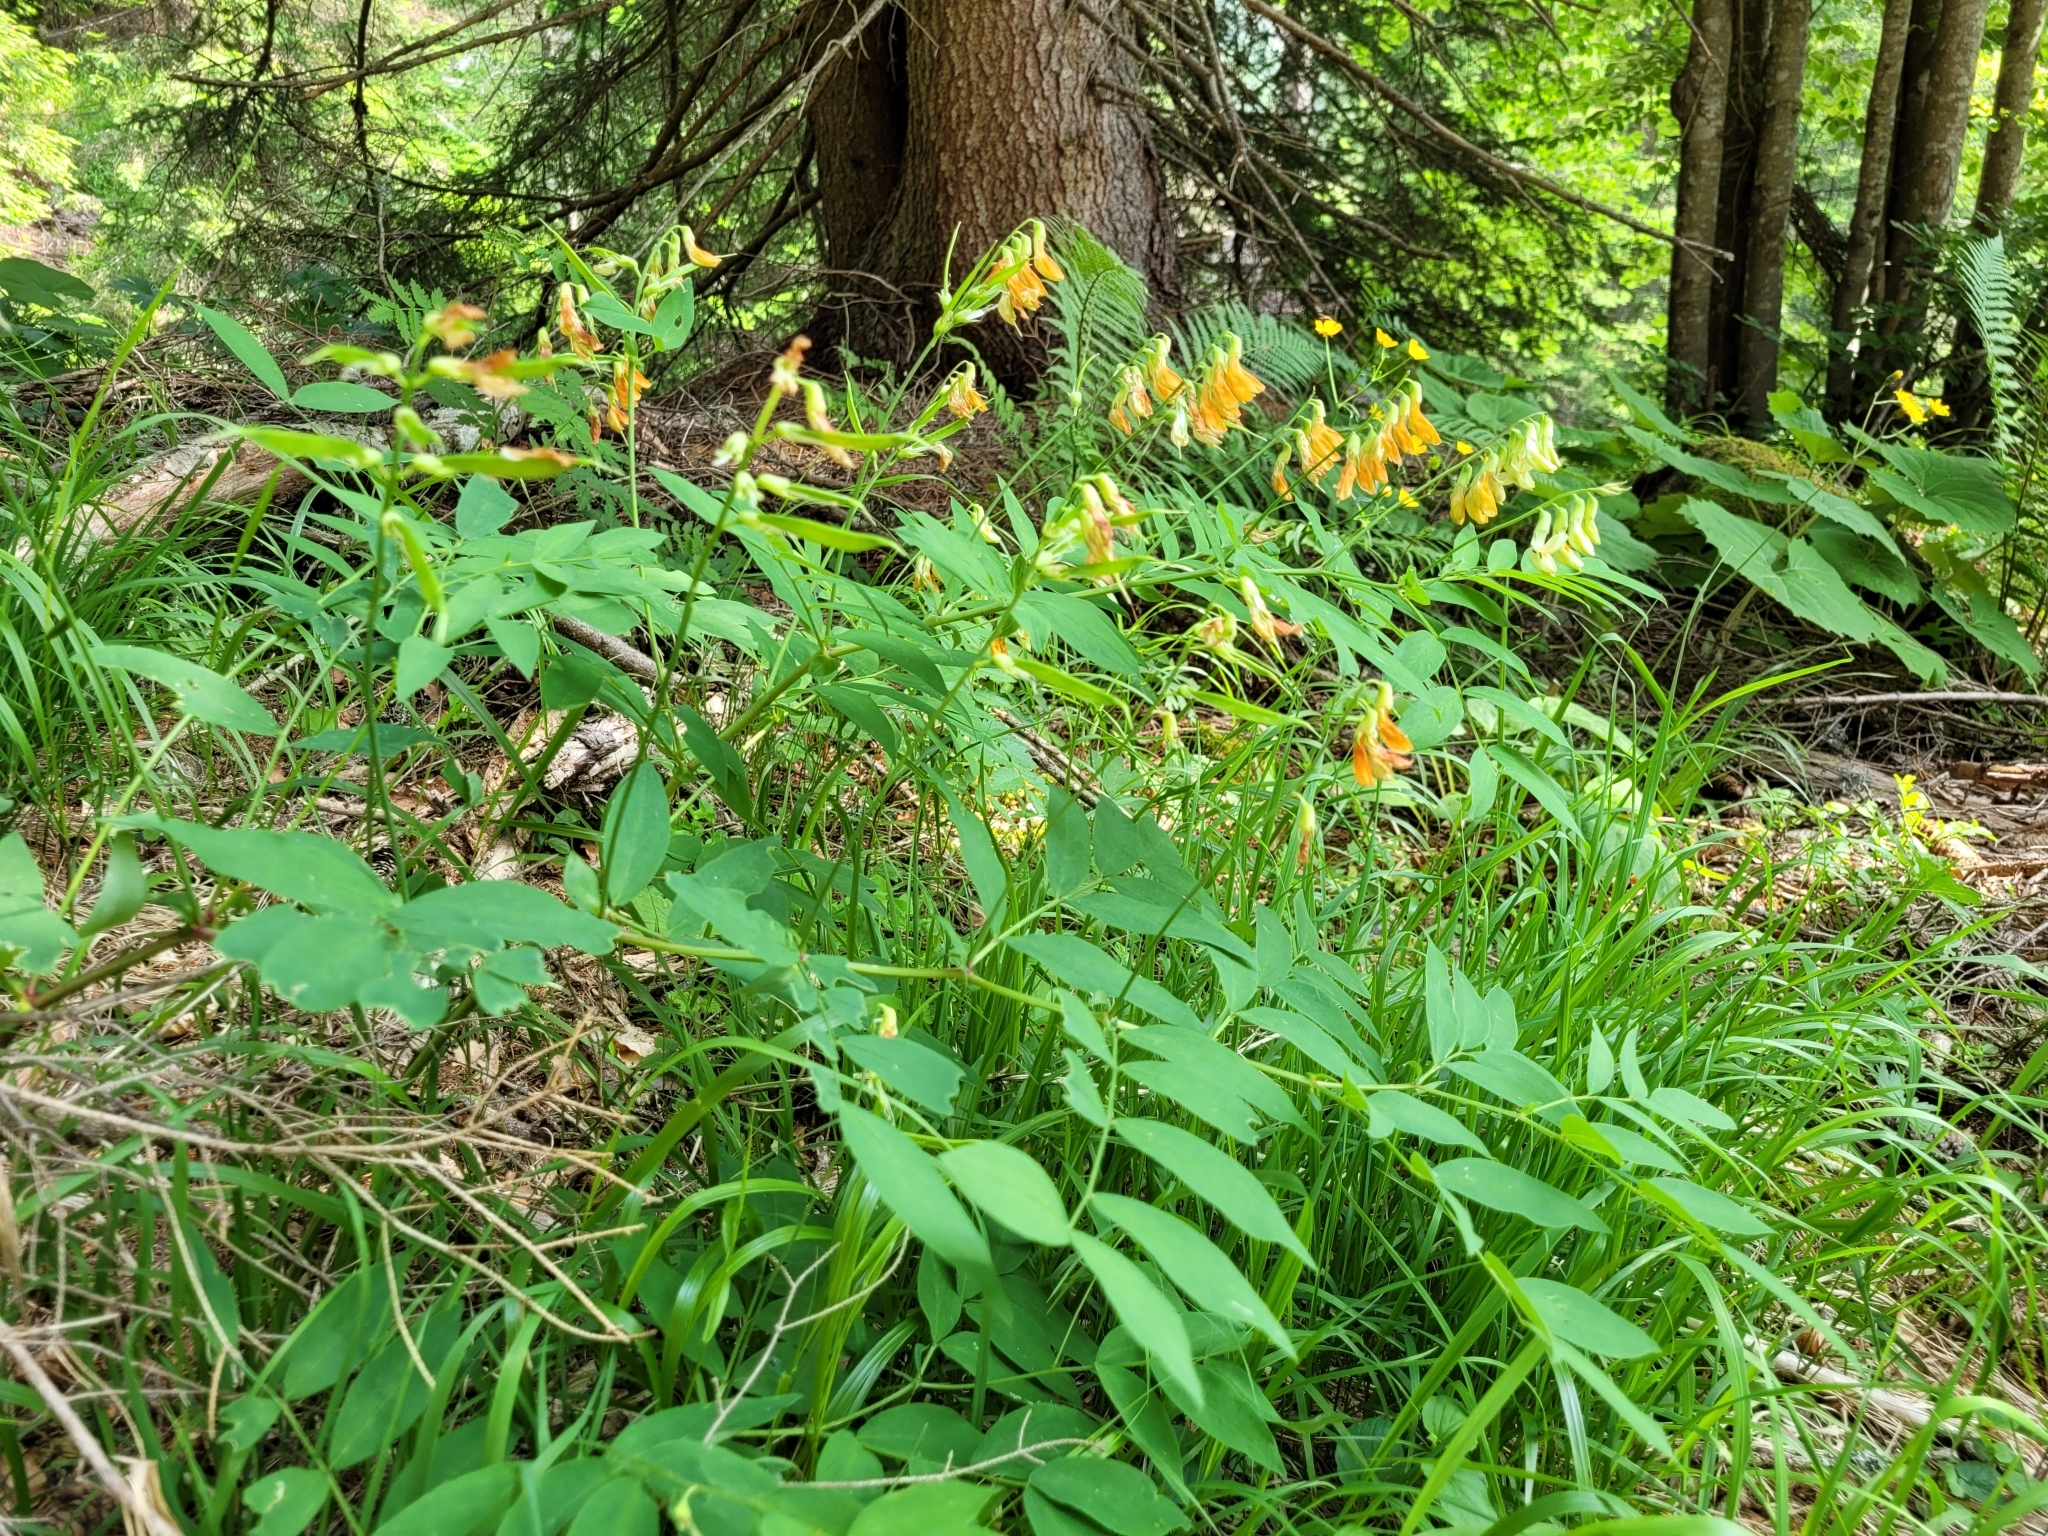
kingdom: Plantae
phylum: Tracheophyta
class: Magnoliopsida
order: Fabales
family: Fabaceae
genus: Lathyrus
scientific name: Lathyrus laevigatus
